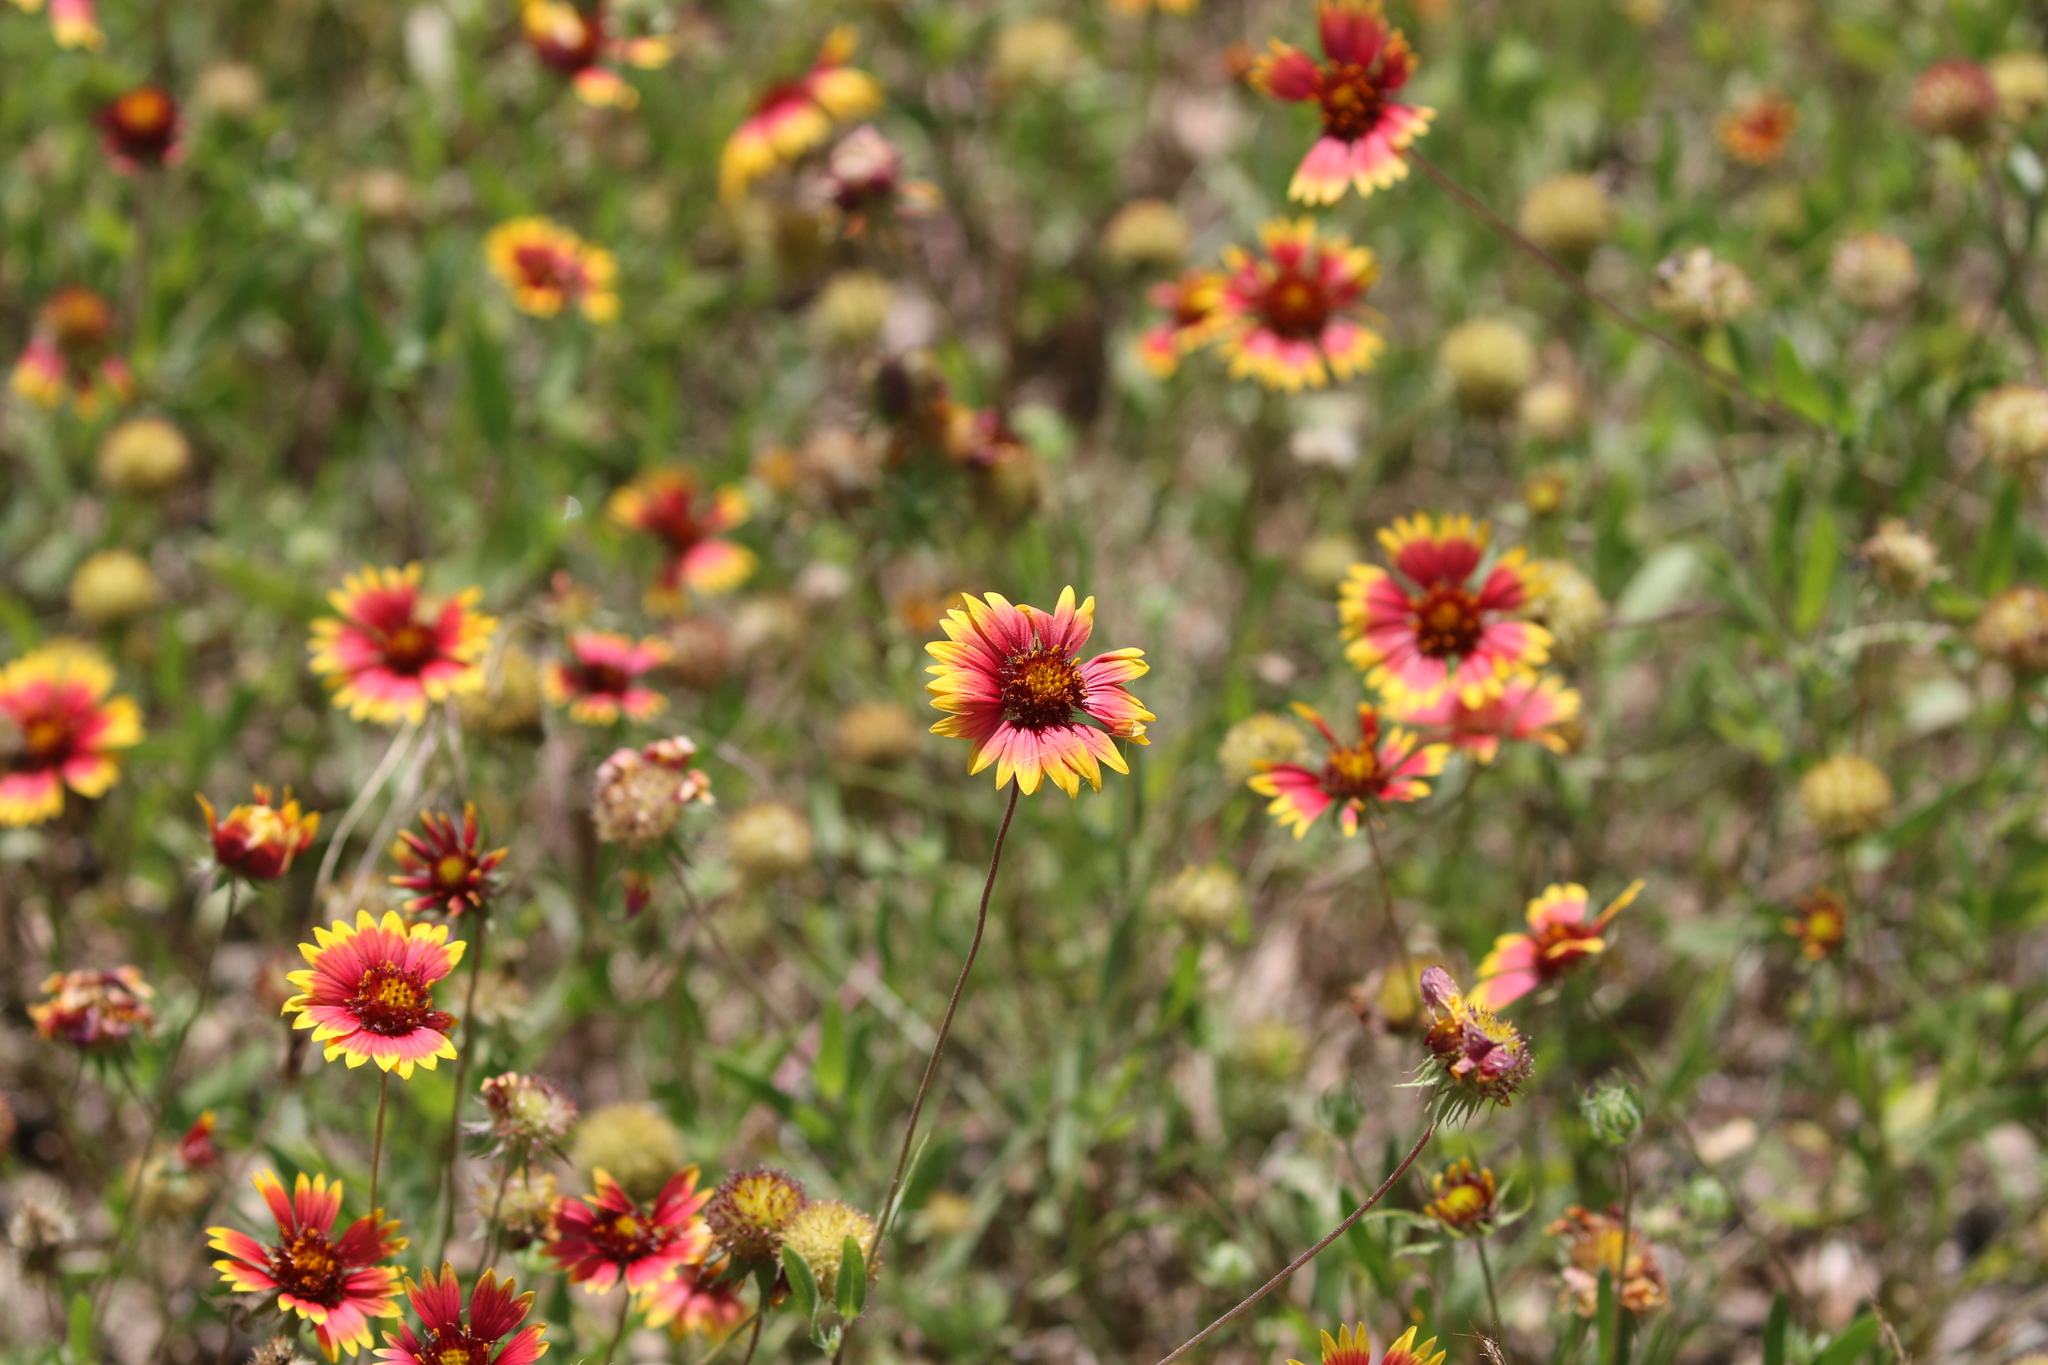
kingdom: Plantae
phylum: Tracheophyta
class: Magnoliopsida
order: Asterales
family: Asteraceae
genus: Gaillardia
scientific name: Gaillardia pulchella
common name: Firewheel
